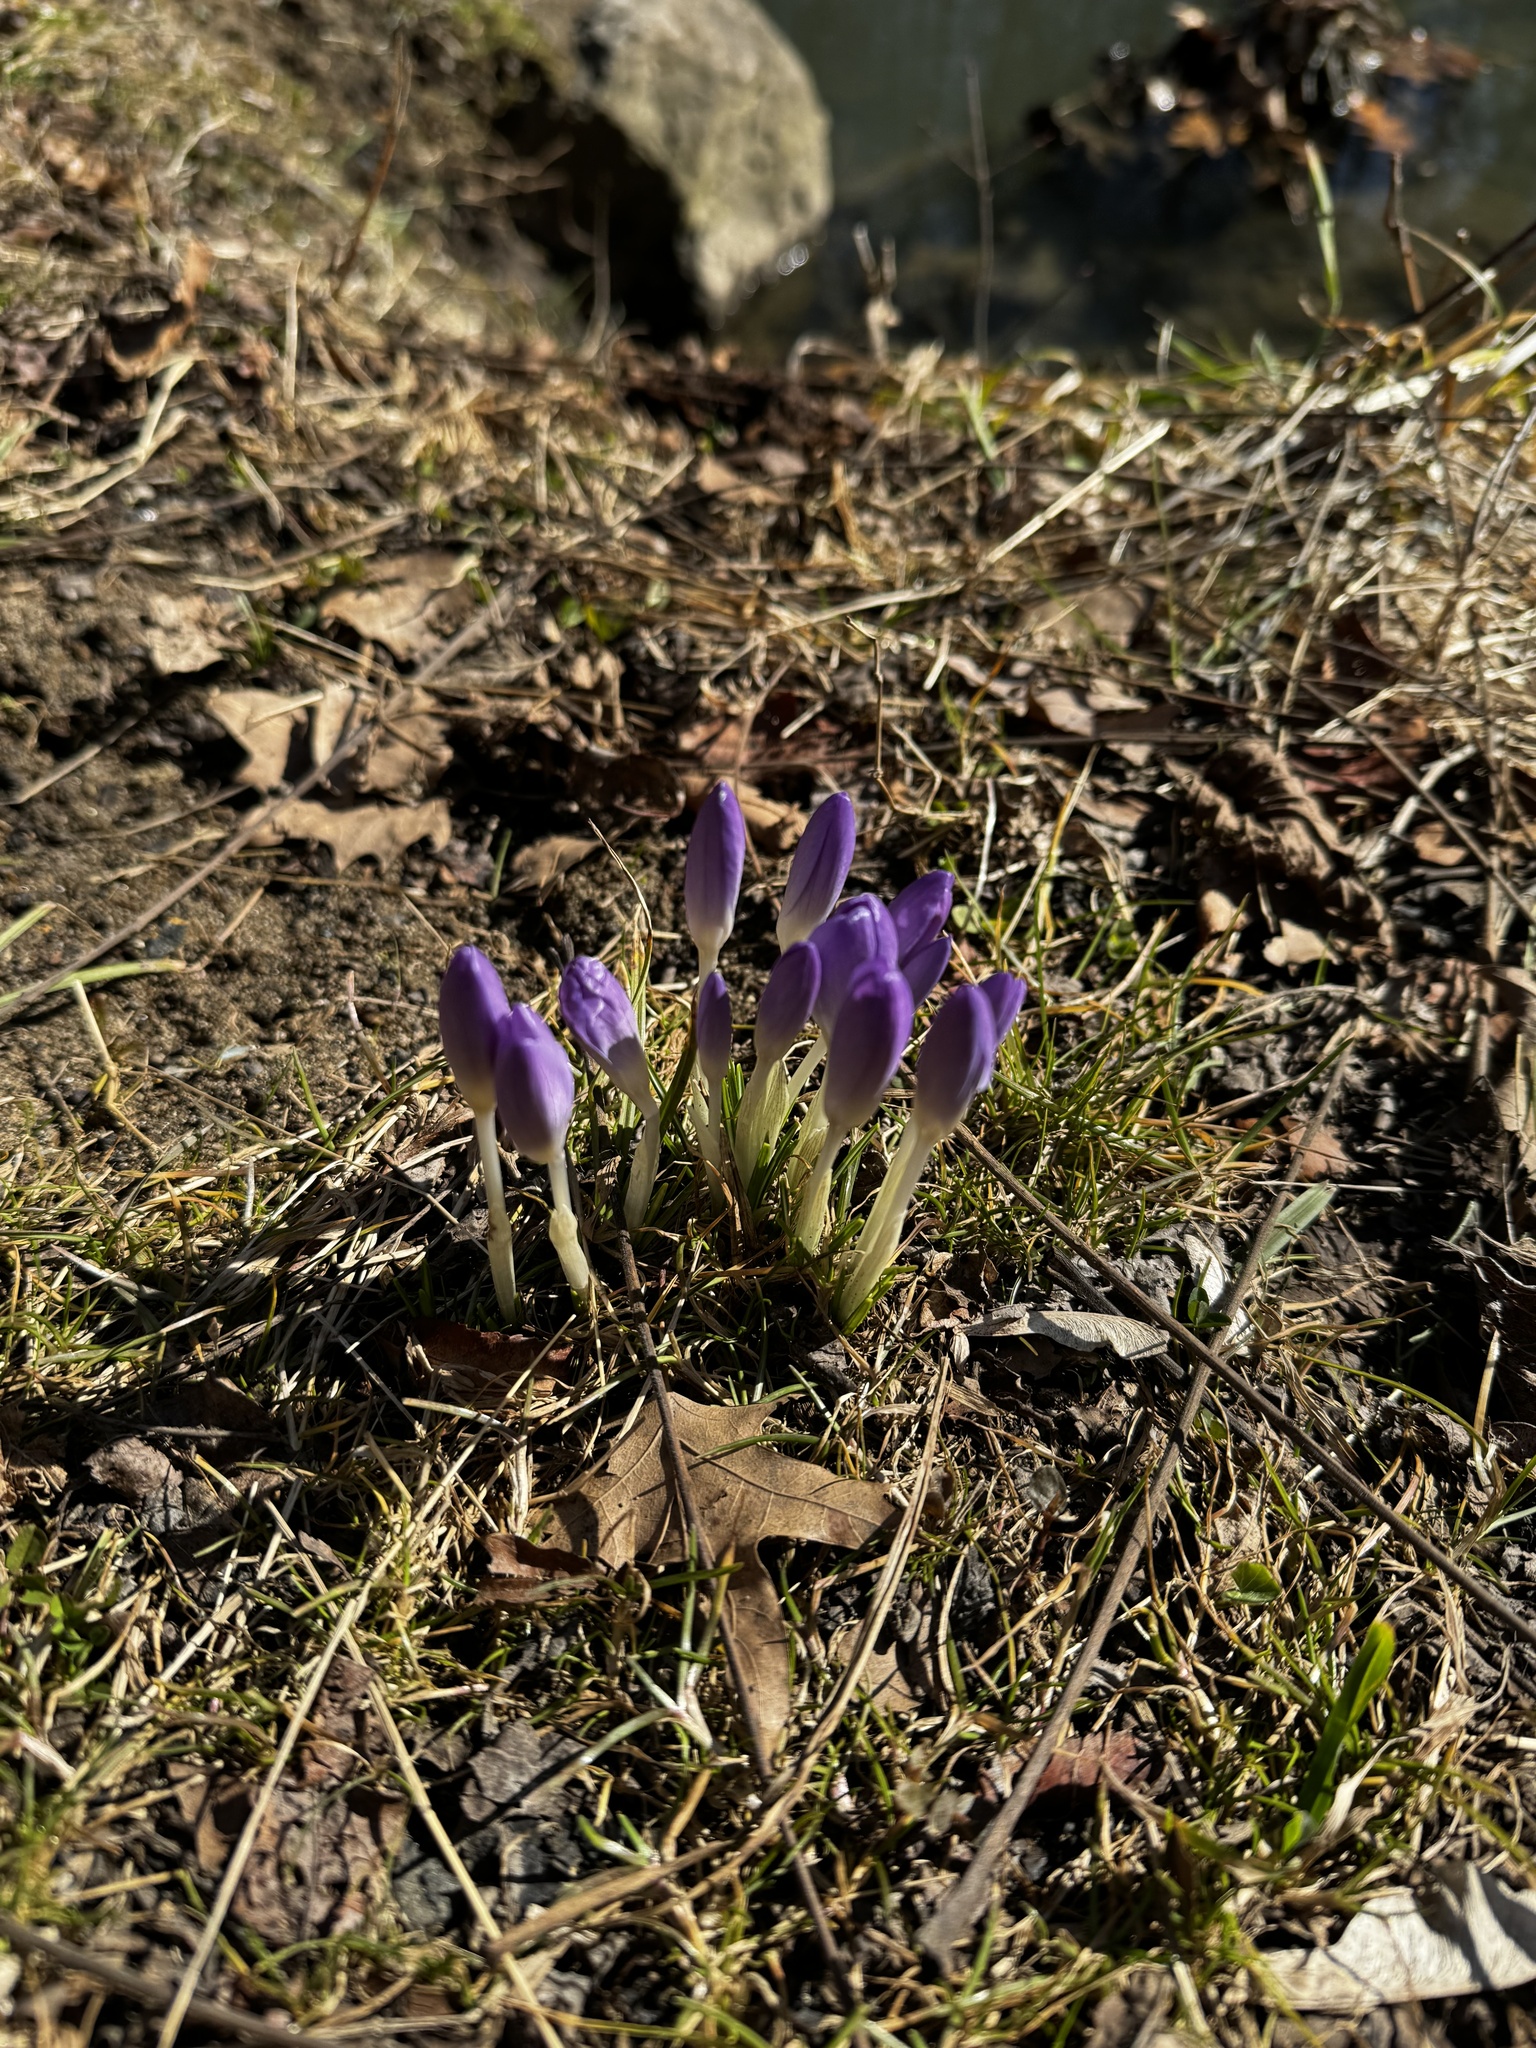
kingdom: Plantae
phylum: Tracheophyta
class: Liliopsida
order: Asparagales
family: Iridaceae
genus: Crocus
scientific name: Crocus tommasinianus
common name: Early crocus
